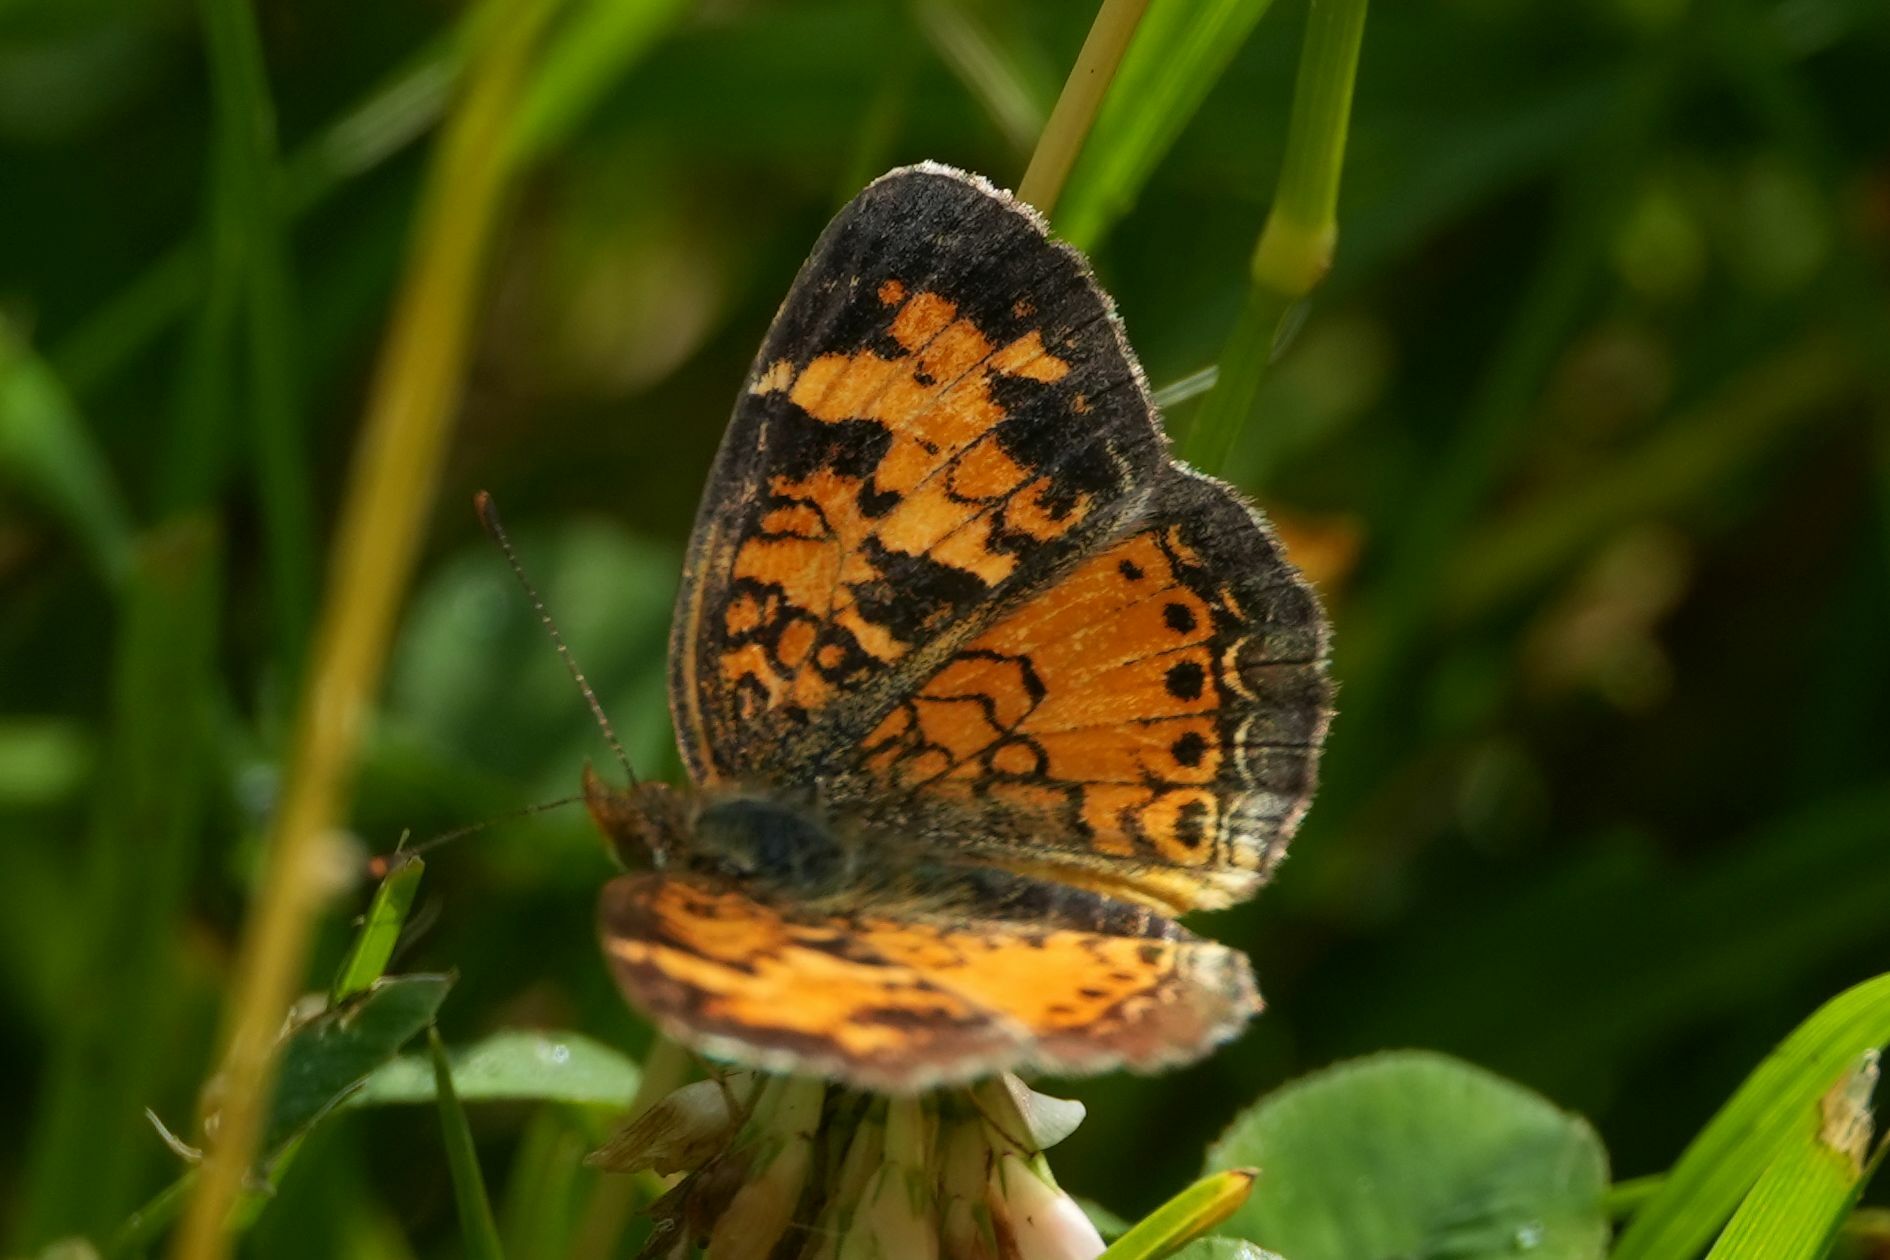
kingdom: Animalia
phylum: Arthropoda
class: Insecta
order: Lepidoptera
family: Nymphalidae
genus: Phyciodes
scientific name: Phyciodes tharos
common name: Pearl crescent
